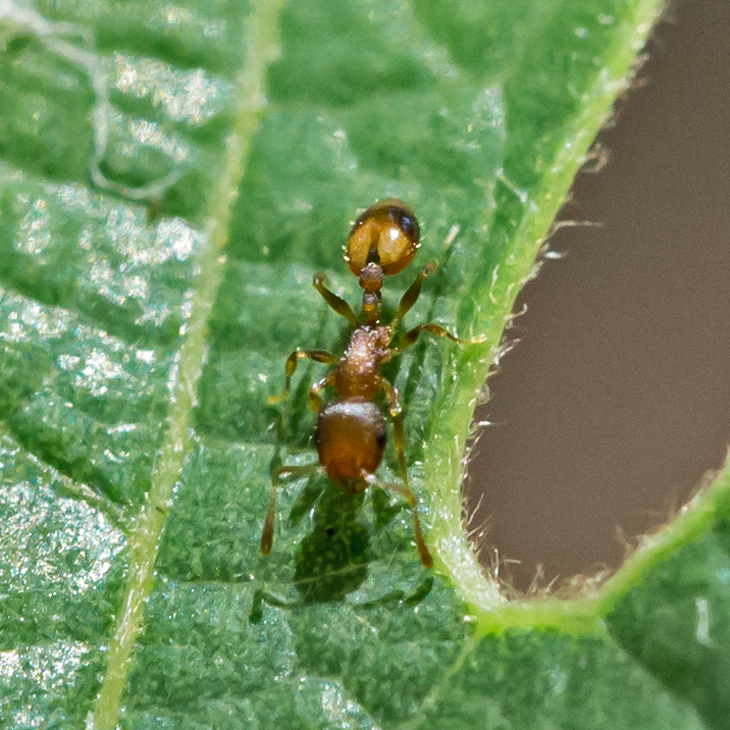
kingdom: Animalia
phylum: Arthropoda
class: Insecta
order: Hymenoptera
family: Formicidae
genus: Temnothorax
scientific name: Temnothorax curvispinosus
